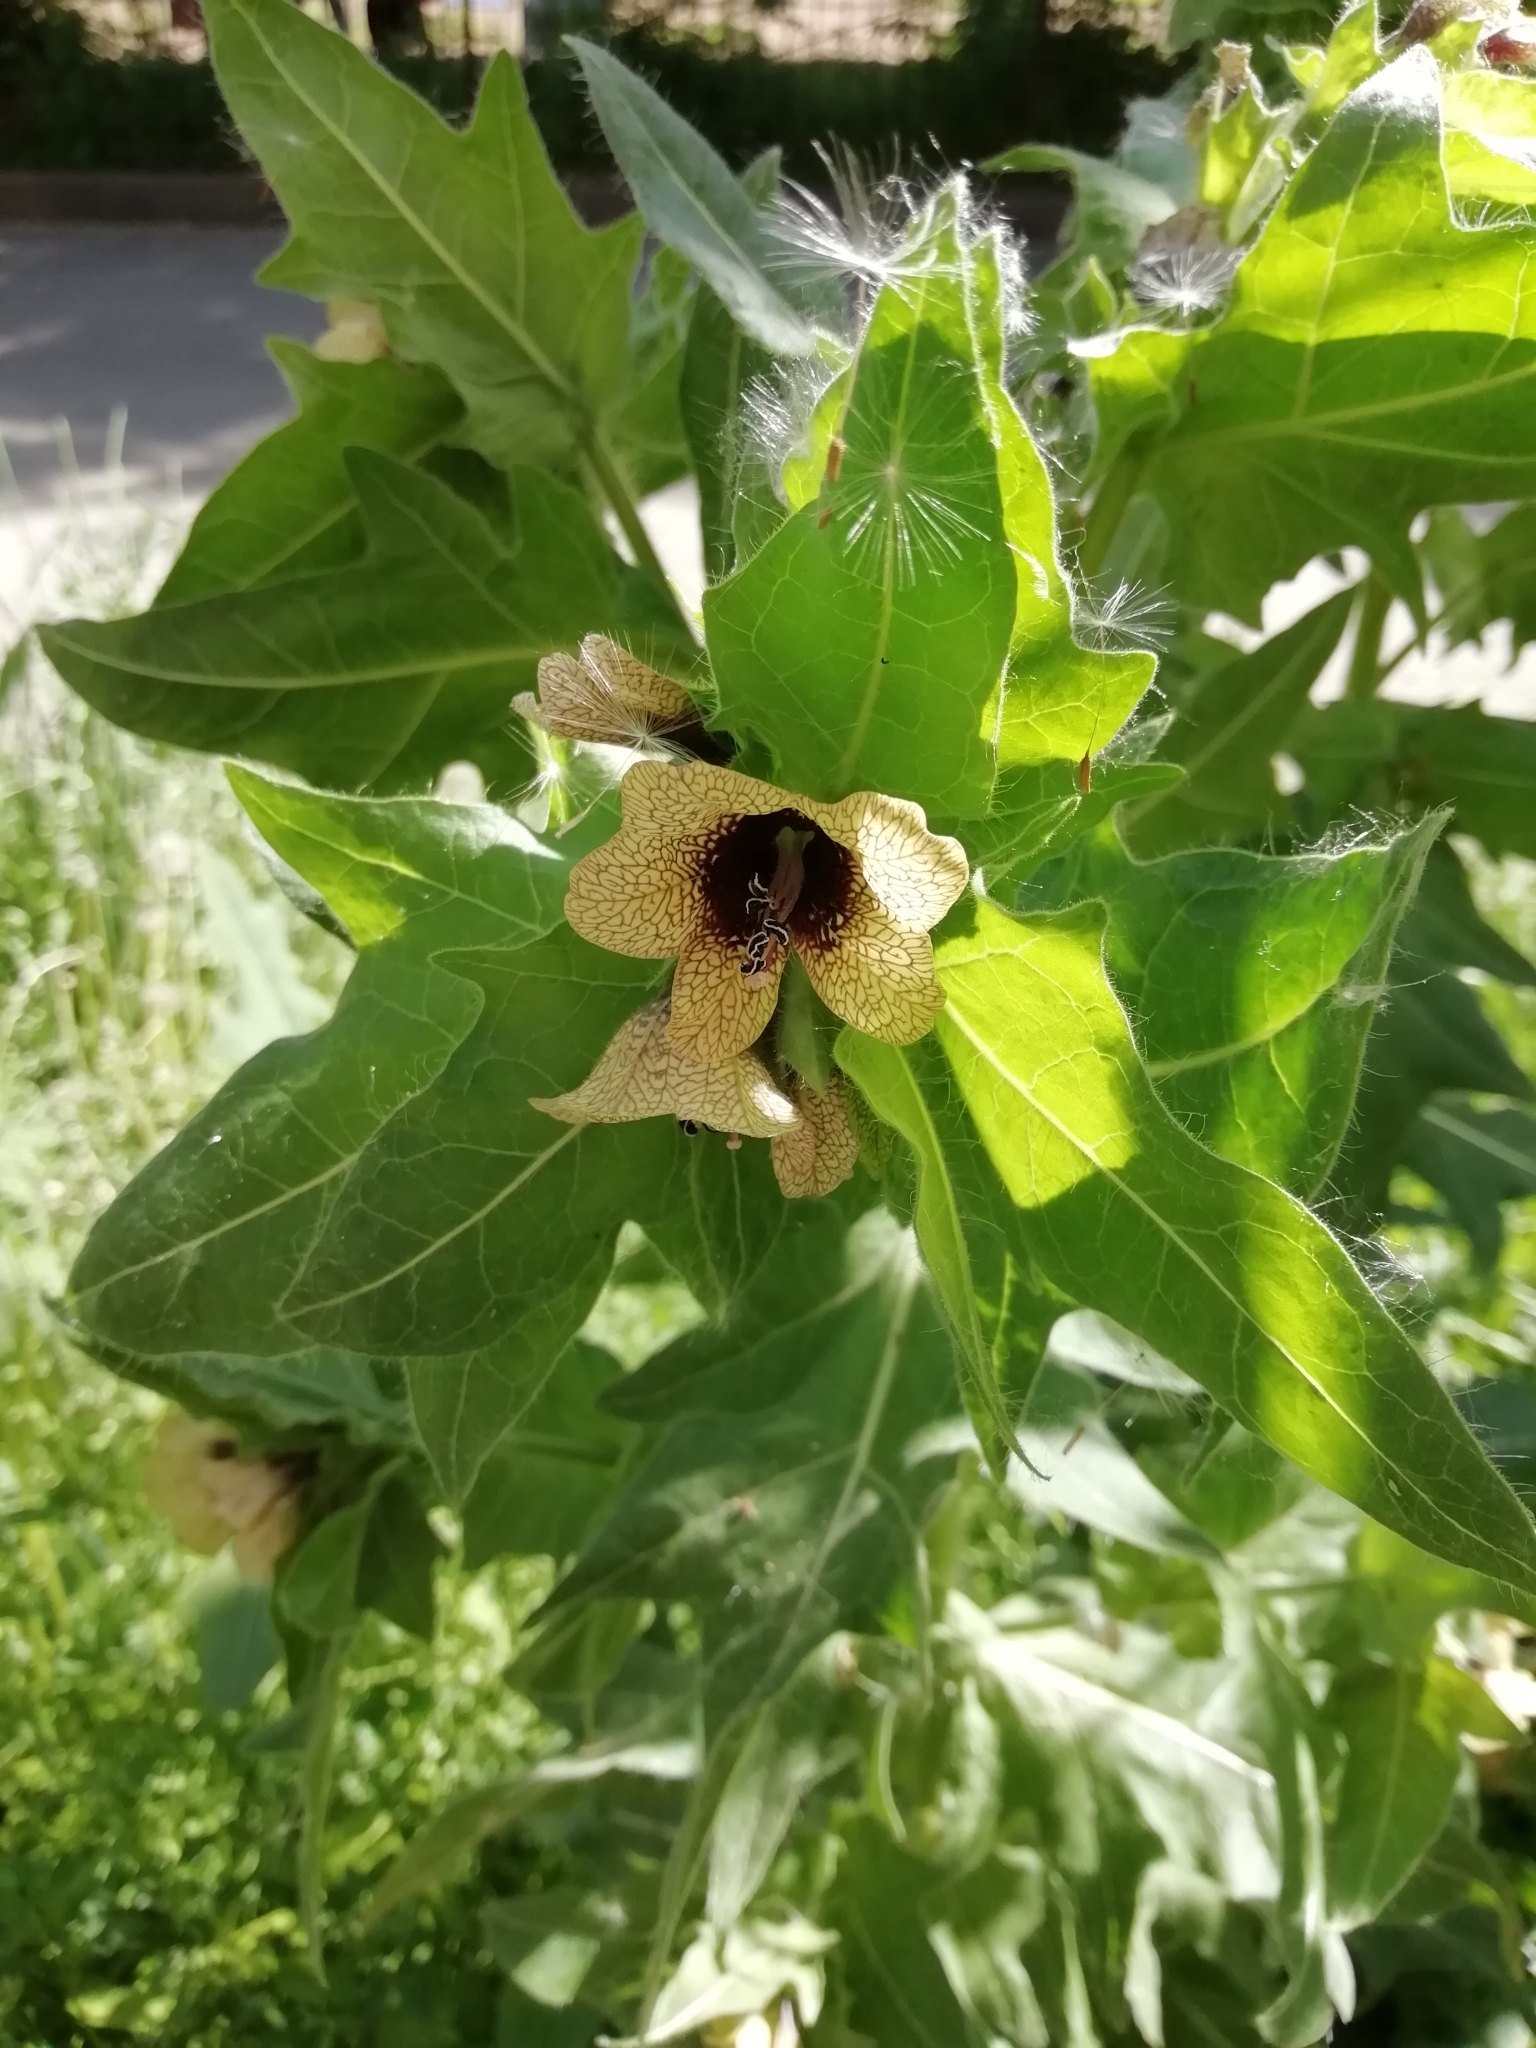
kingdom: Plantae
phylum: Tracheophyta
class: Magnoliopsida
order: Solanales
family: Solanaceae
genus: Hyoscyamus
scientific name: Hyoscyamus niger
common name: Henbane
